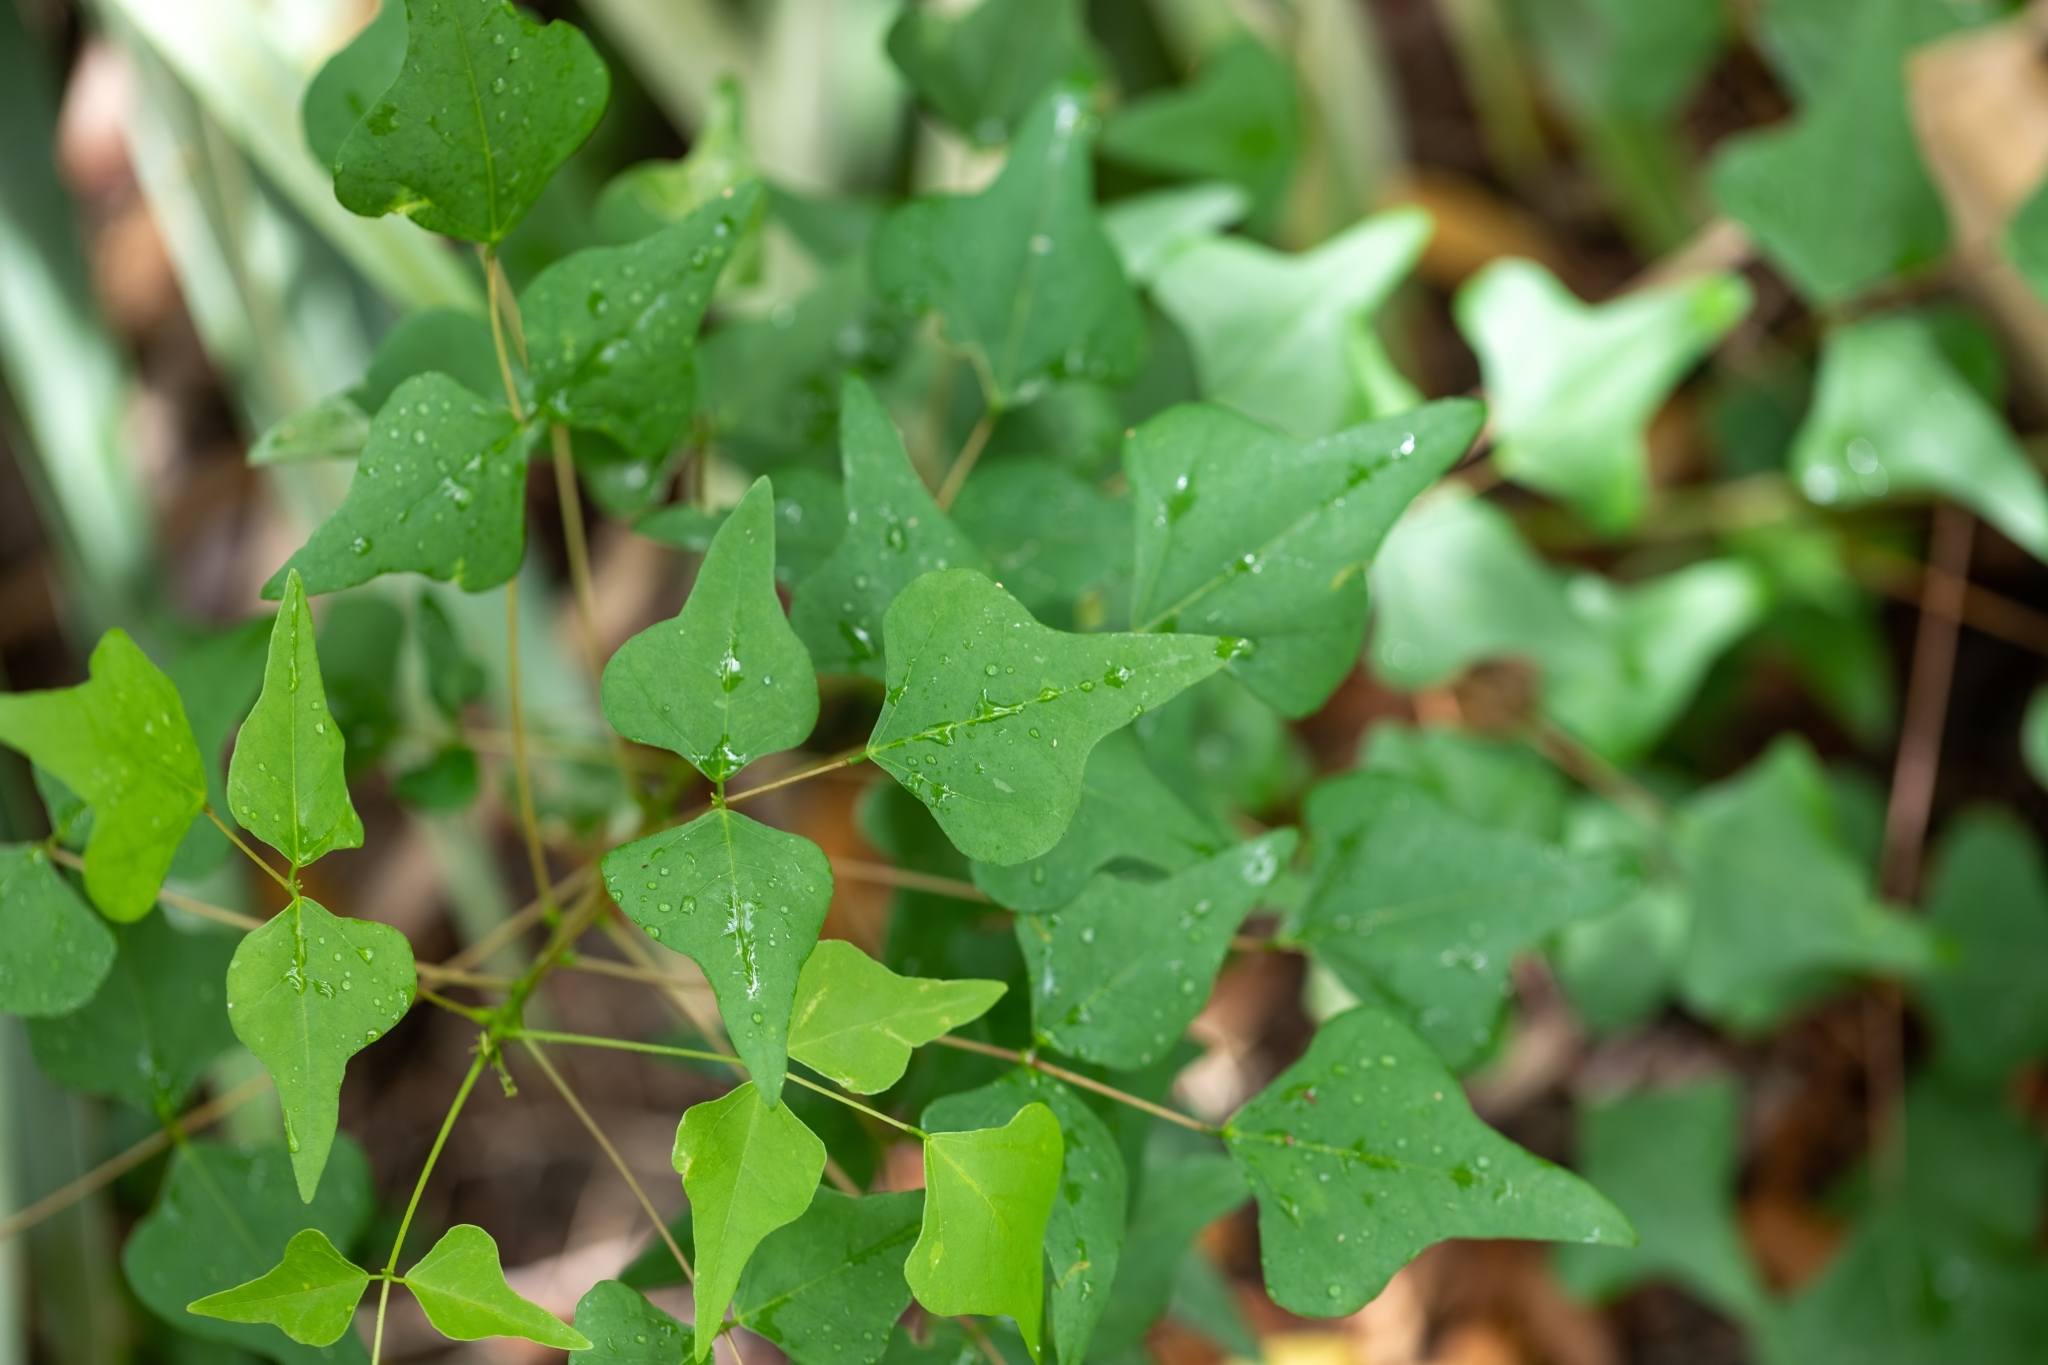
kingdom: Plantae
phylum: Tracheophyta
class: Magnoliopsida
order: Fabales
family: Fabaceae
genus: Erythrina
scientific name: Erythrina herbacea
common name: Coral-bean
